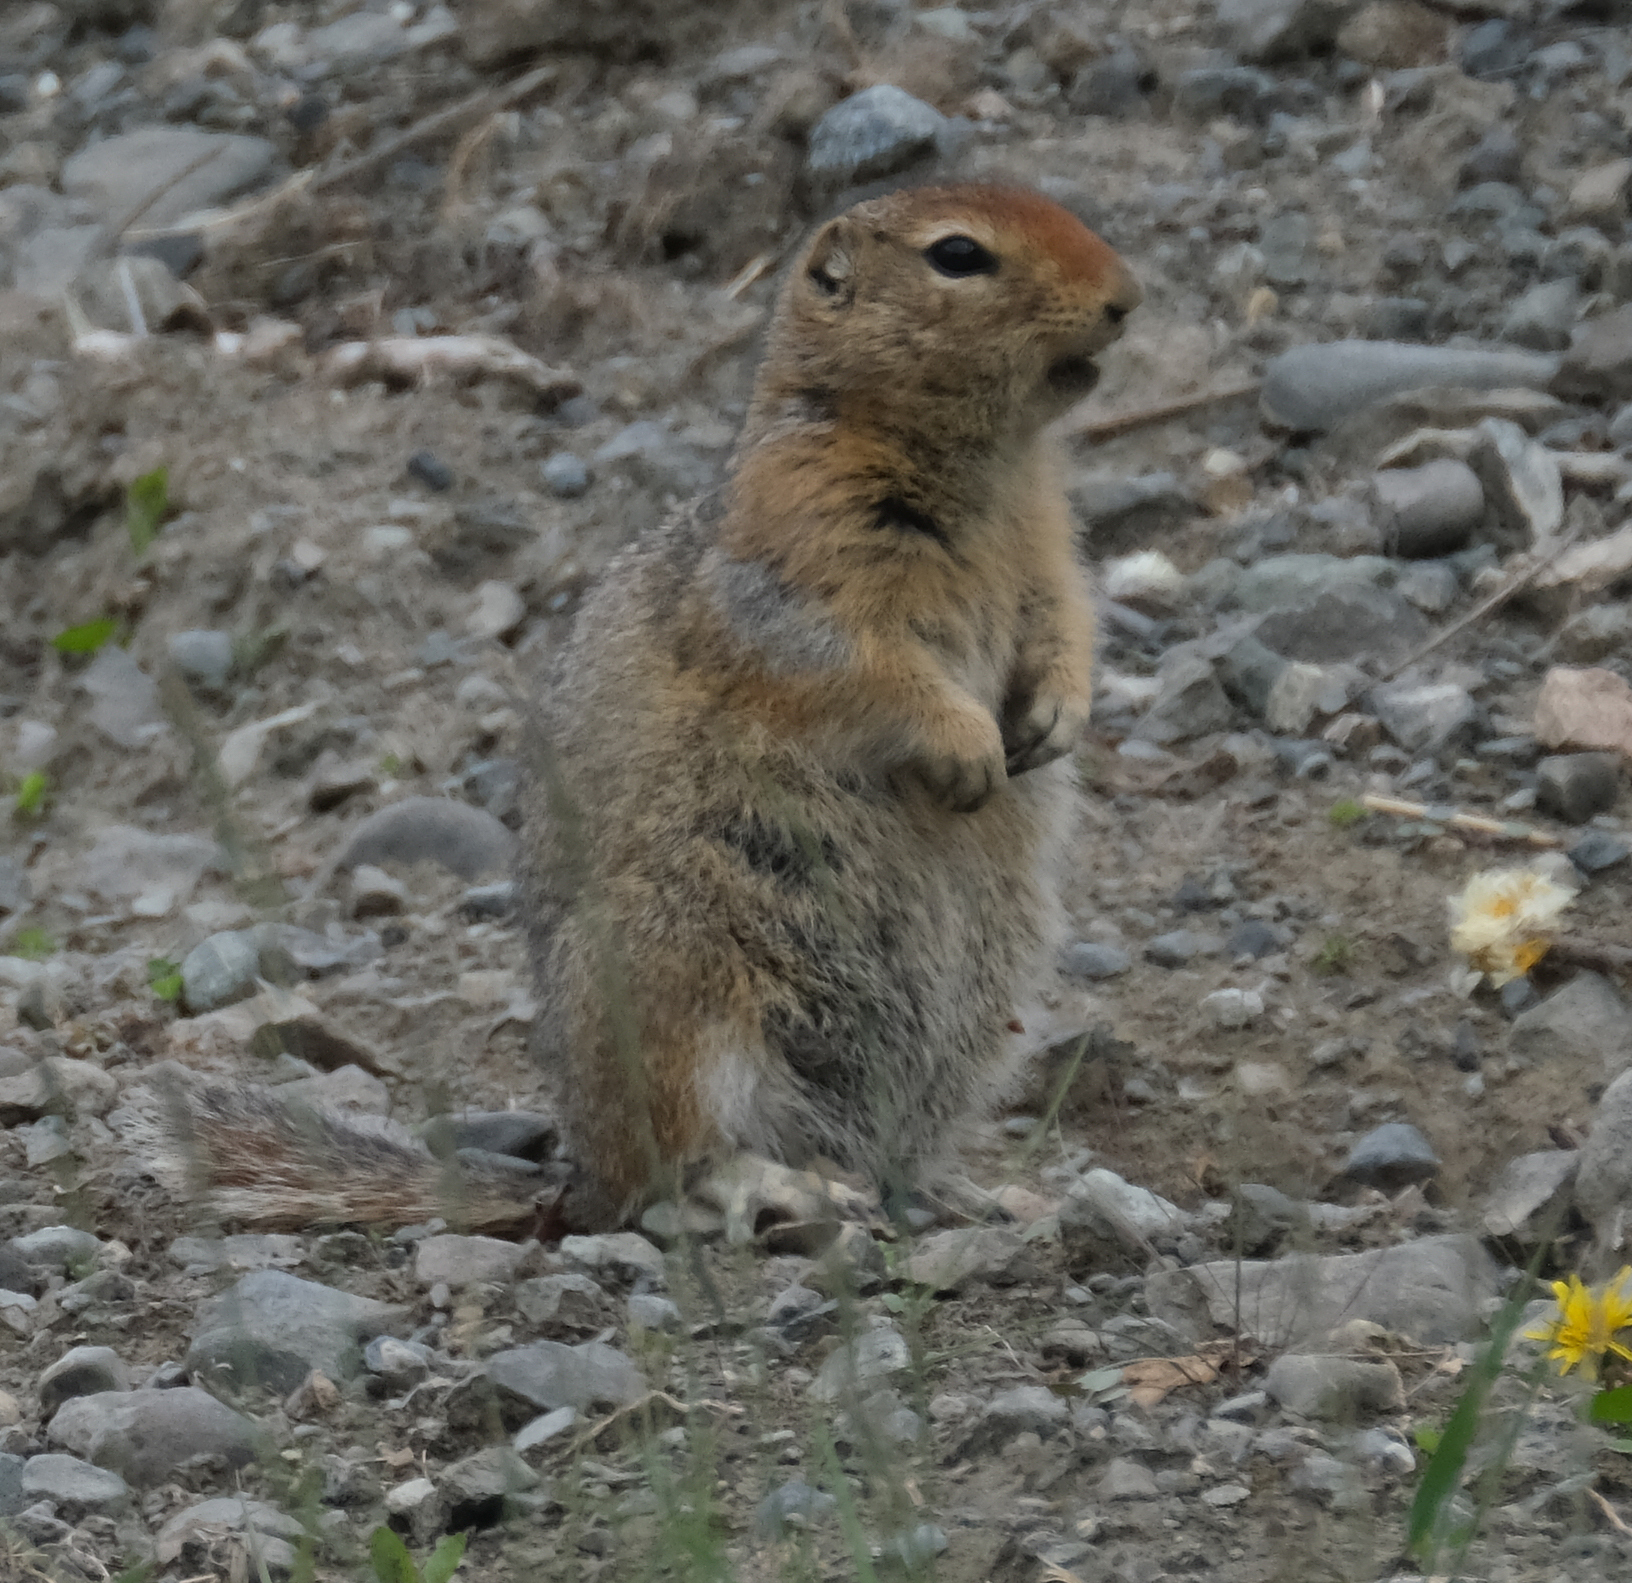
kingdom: Animalia
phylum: Chordata
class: Mammalia
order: Rodentia
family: Sciuridae
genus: Urocitellus
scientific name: Urocitellus parryii
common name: Arctic ground squirrel
